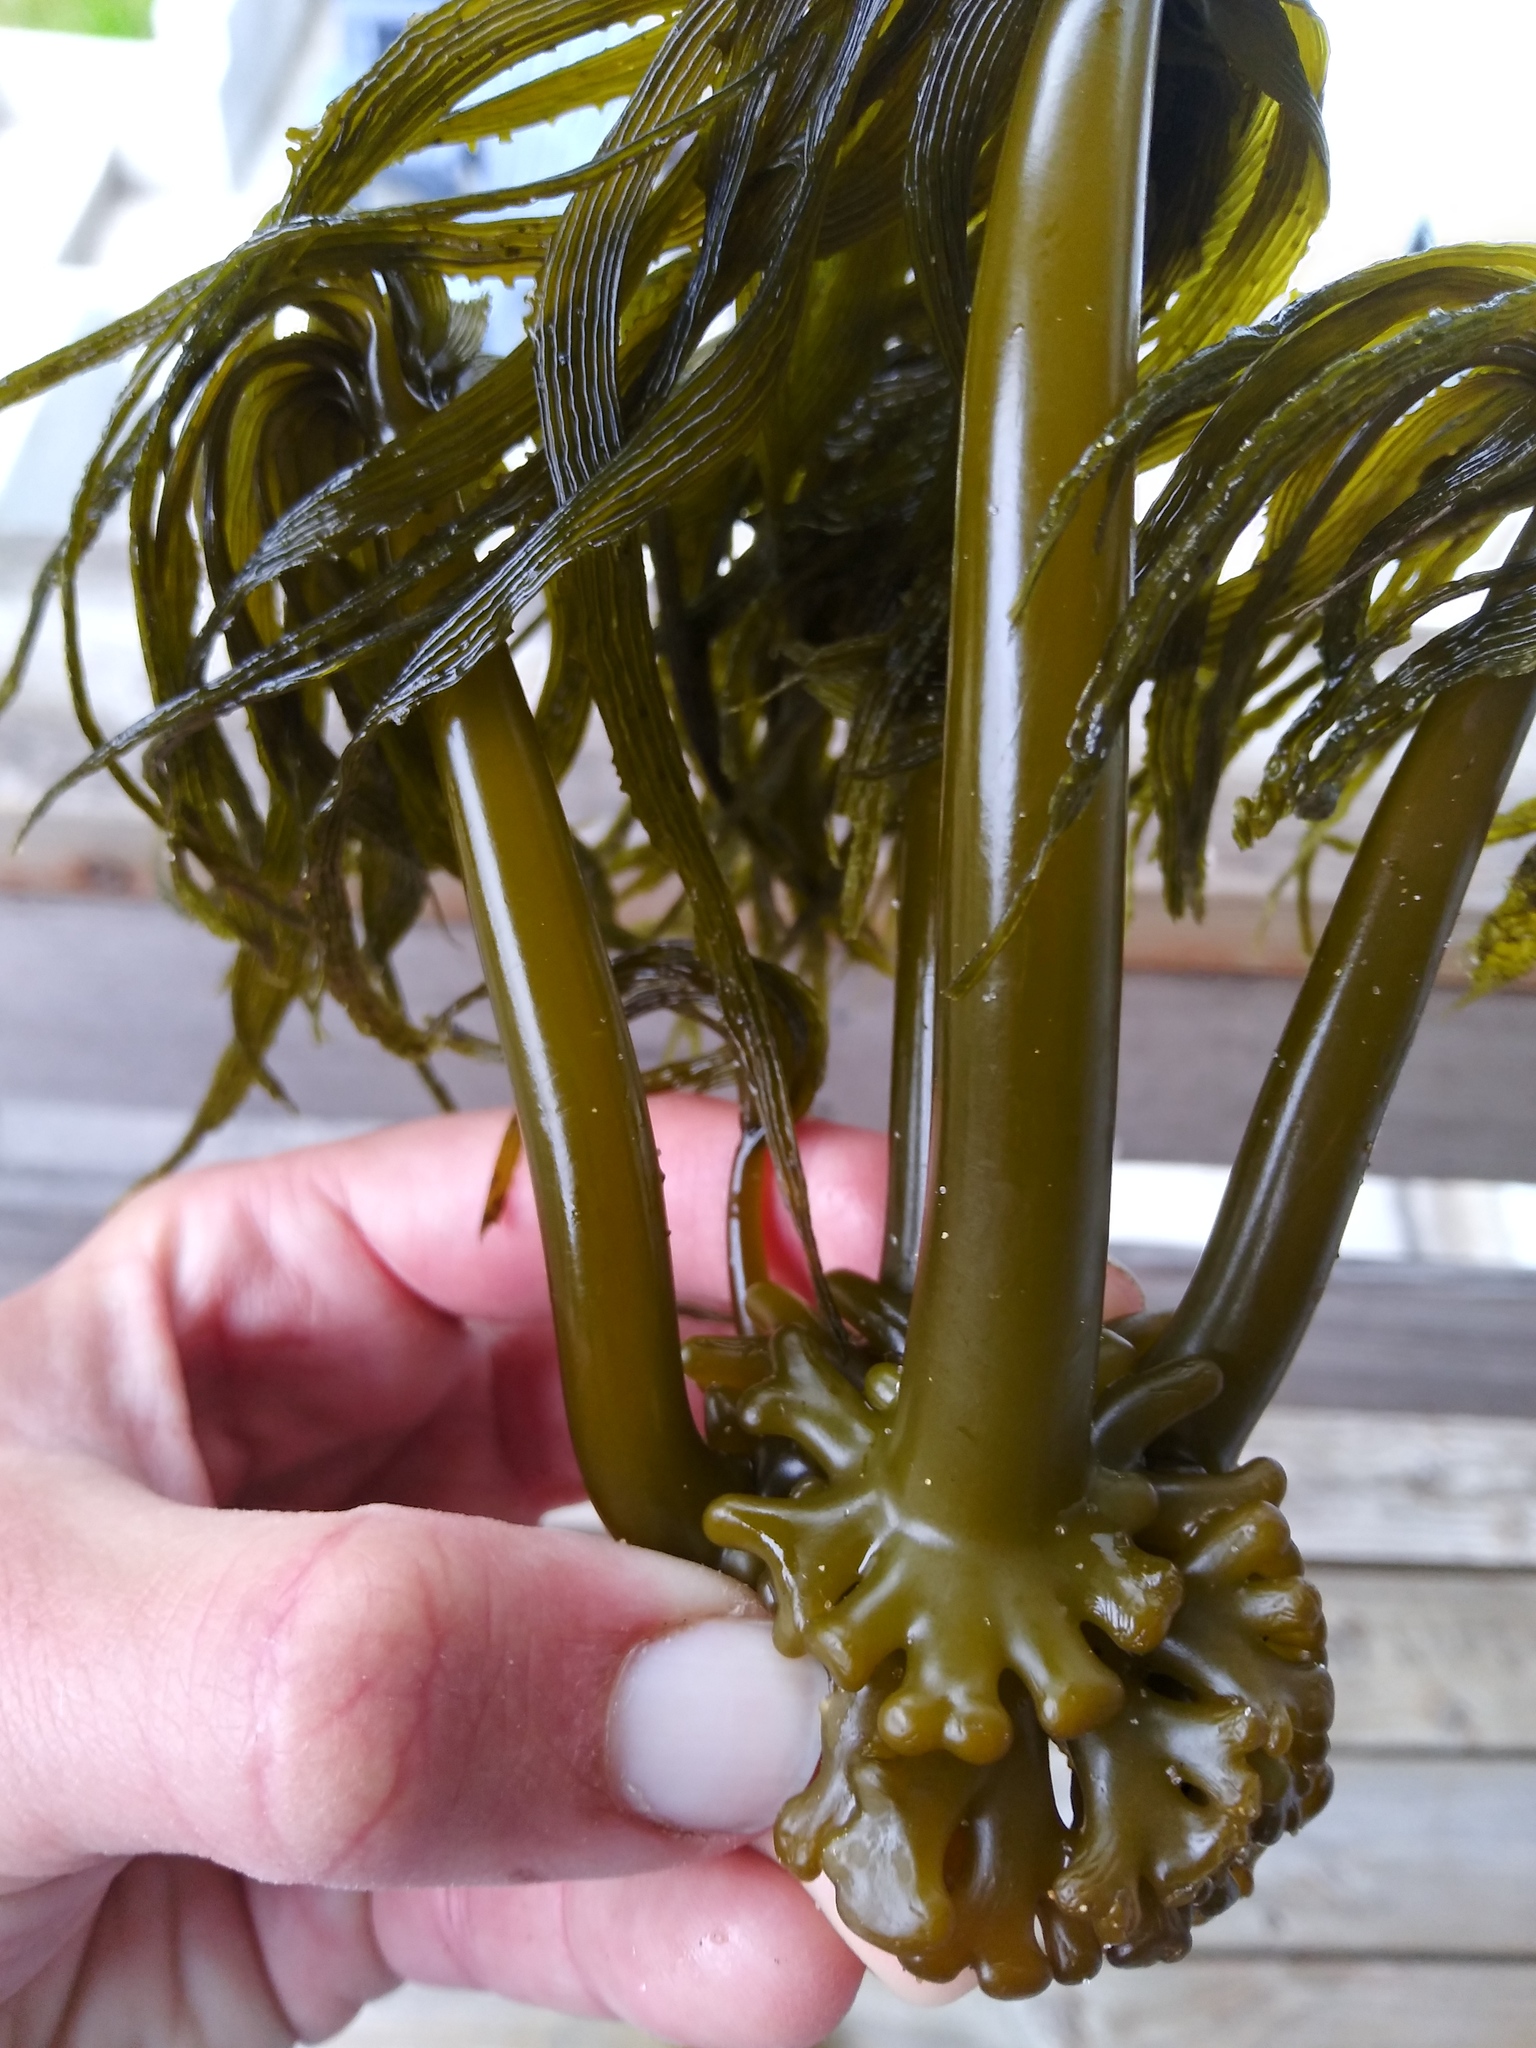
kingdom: Chromista
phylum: Ochrophyta
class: Phaeophyceae
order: Laminariales
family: Laminariaceae
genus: Postelsia
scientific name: Postelsia palmiformis
